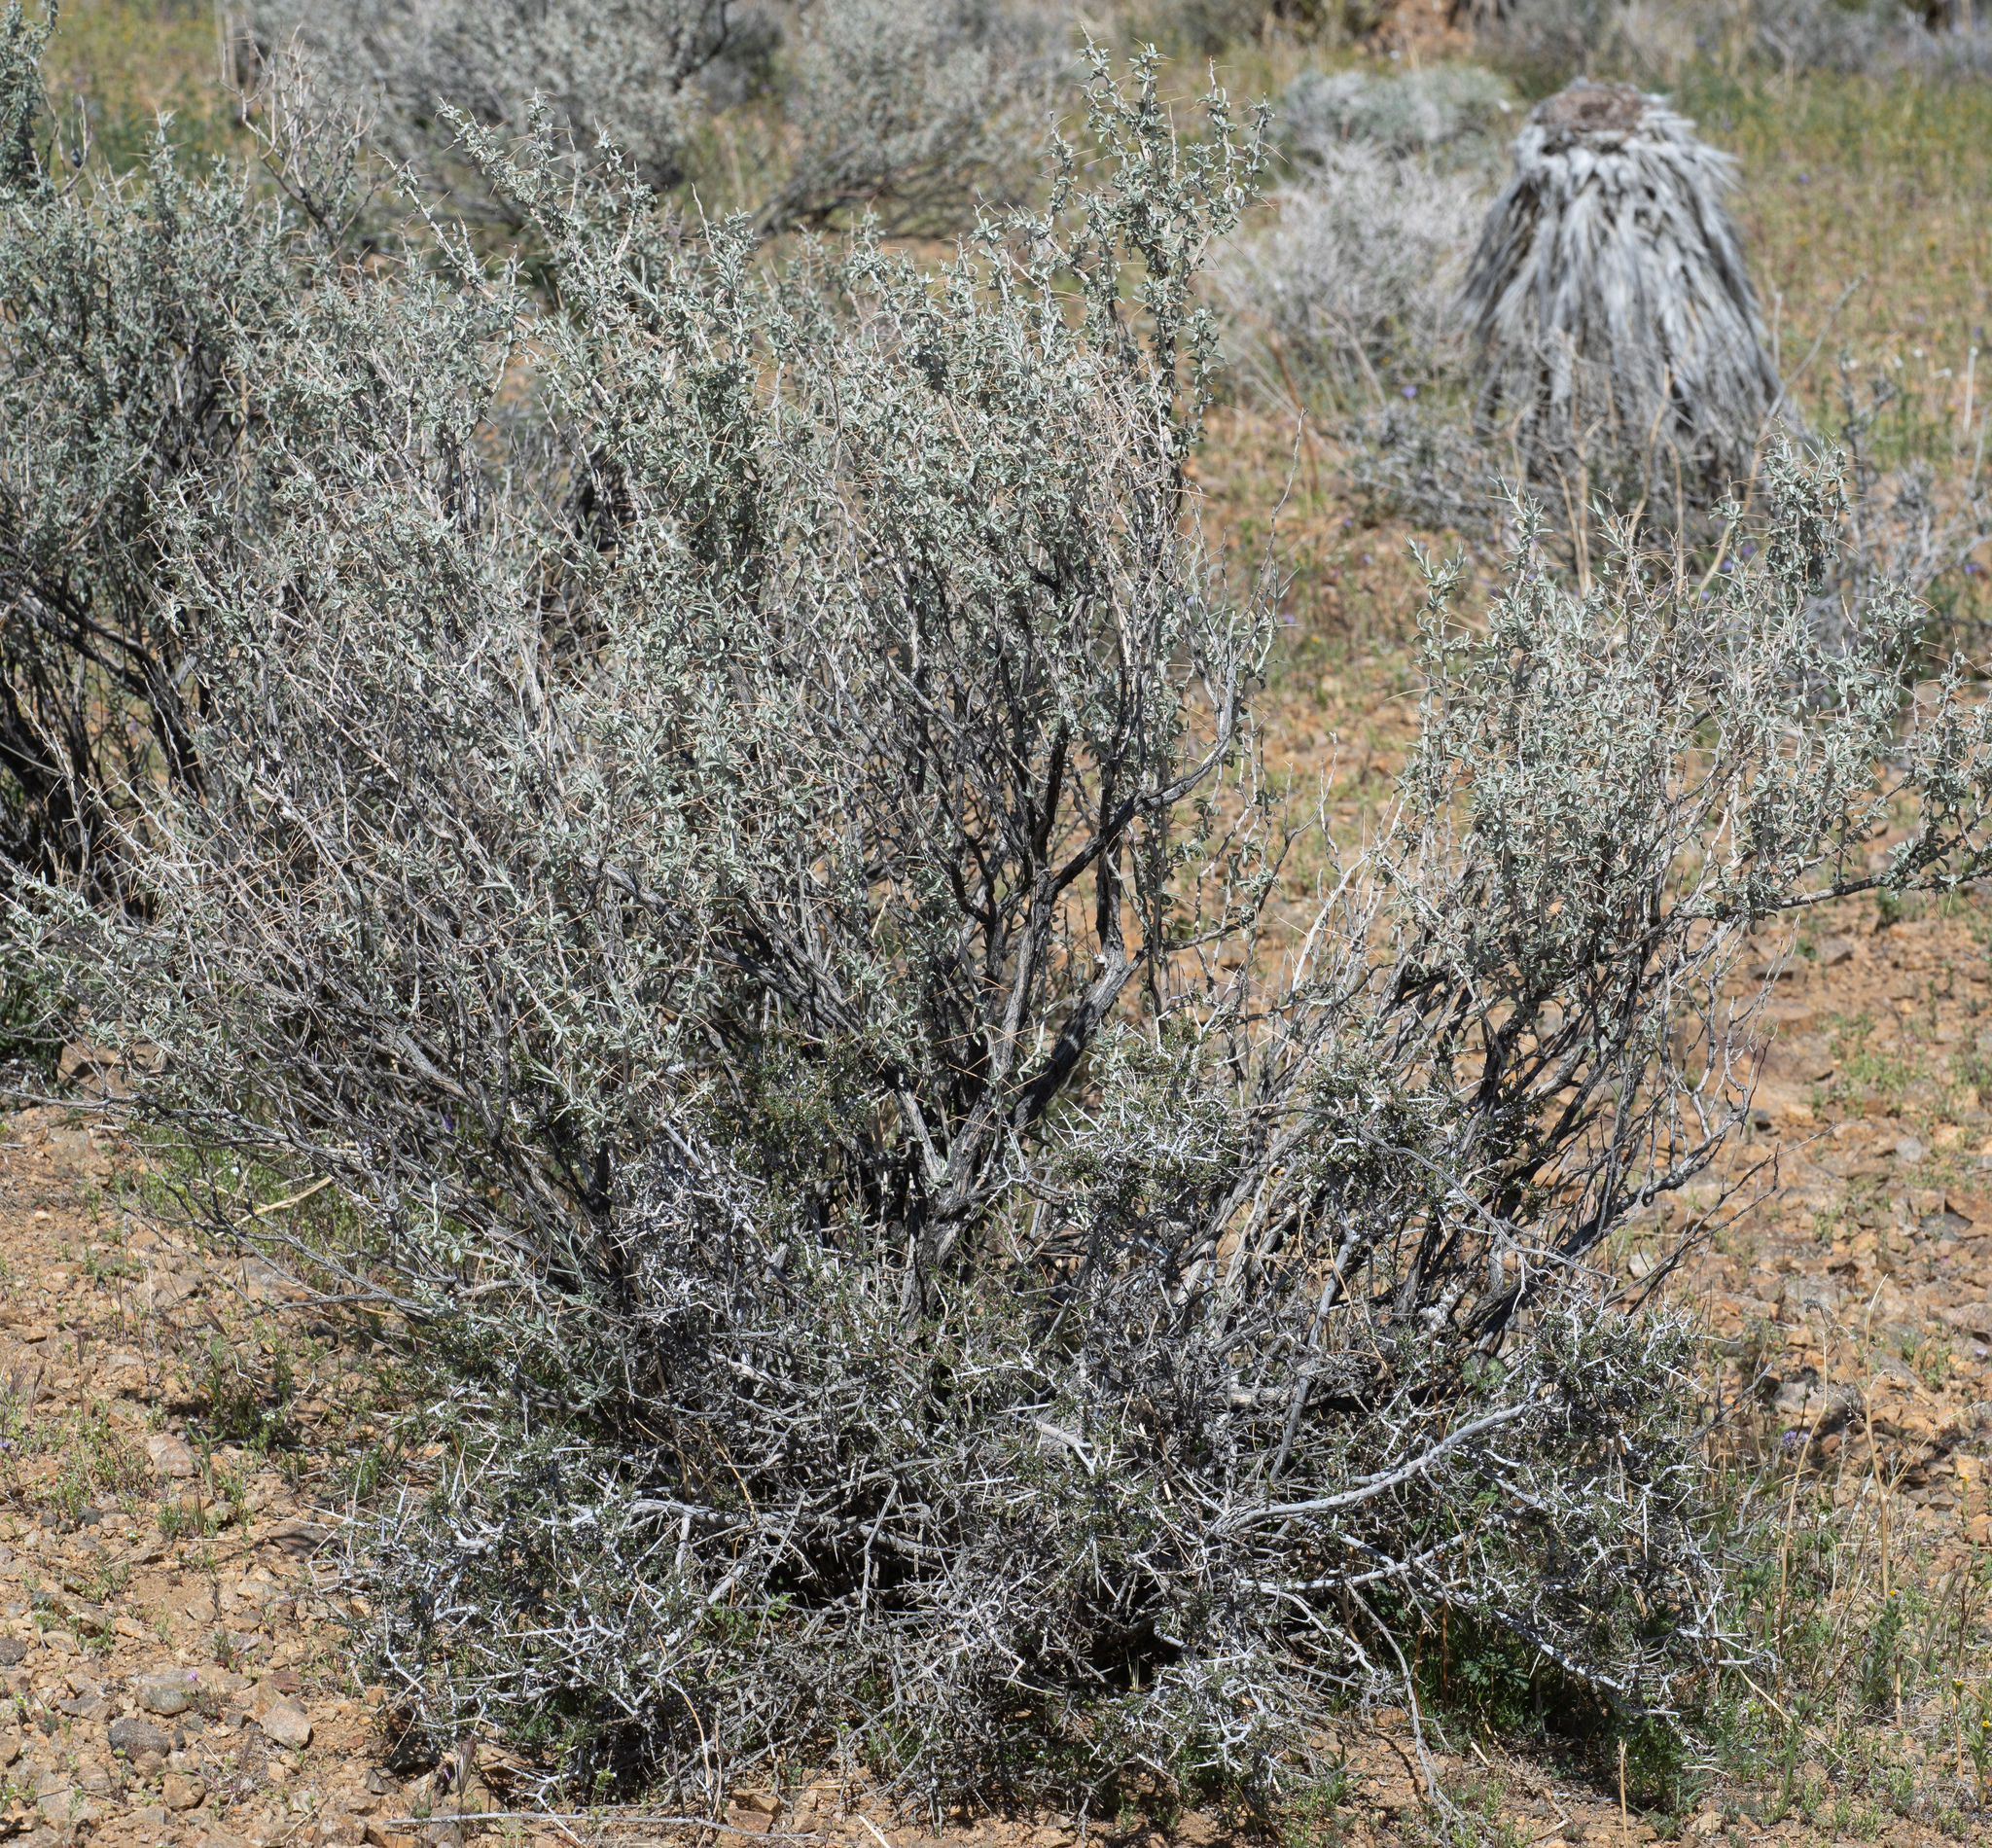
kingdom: Plantae
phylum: Tracheophyta
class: Magnoliopsida
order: Asterales
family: Asteraceae
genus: Tetradymia
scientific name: Tetradymia stenolepis
